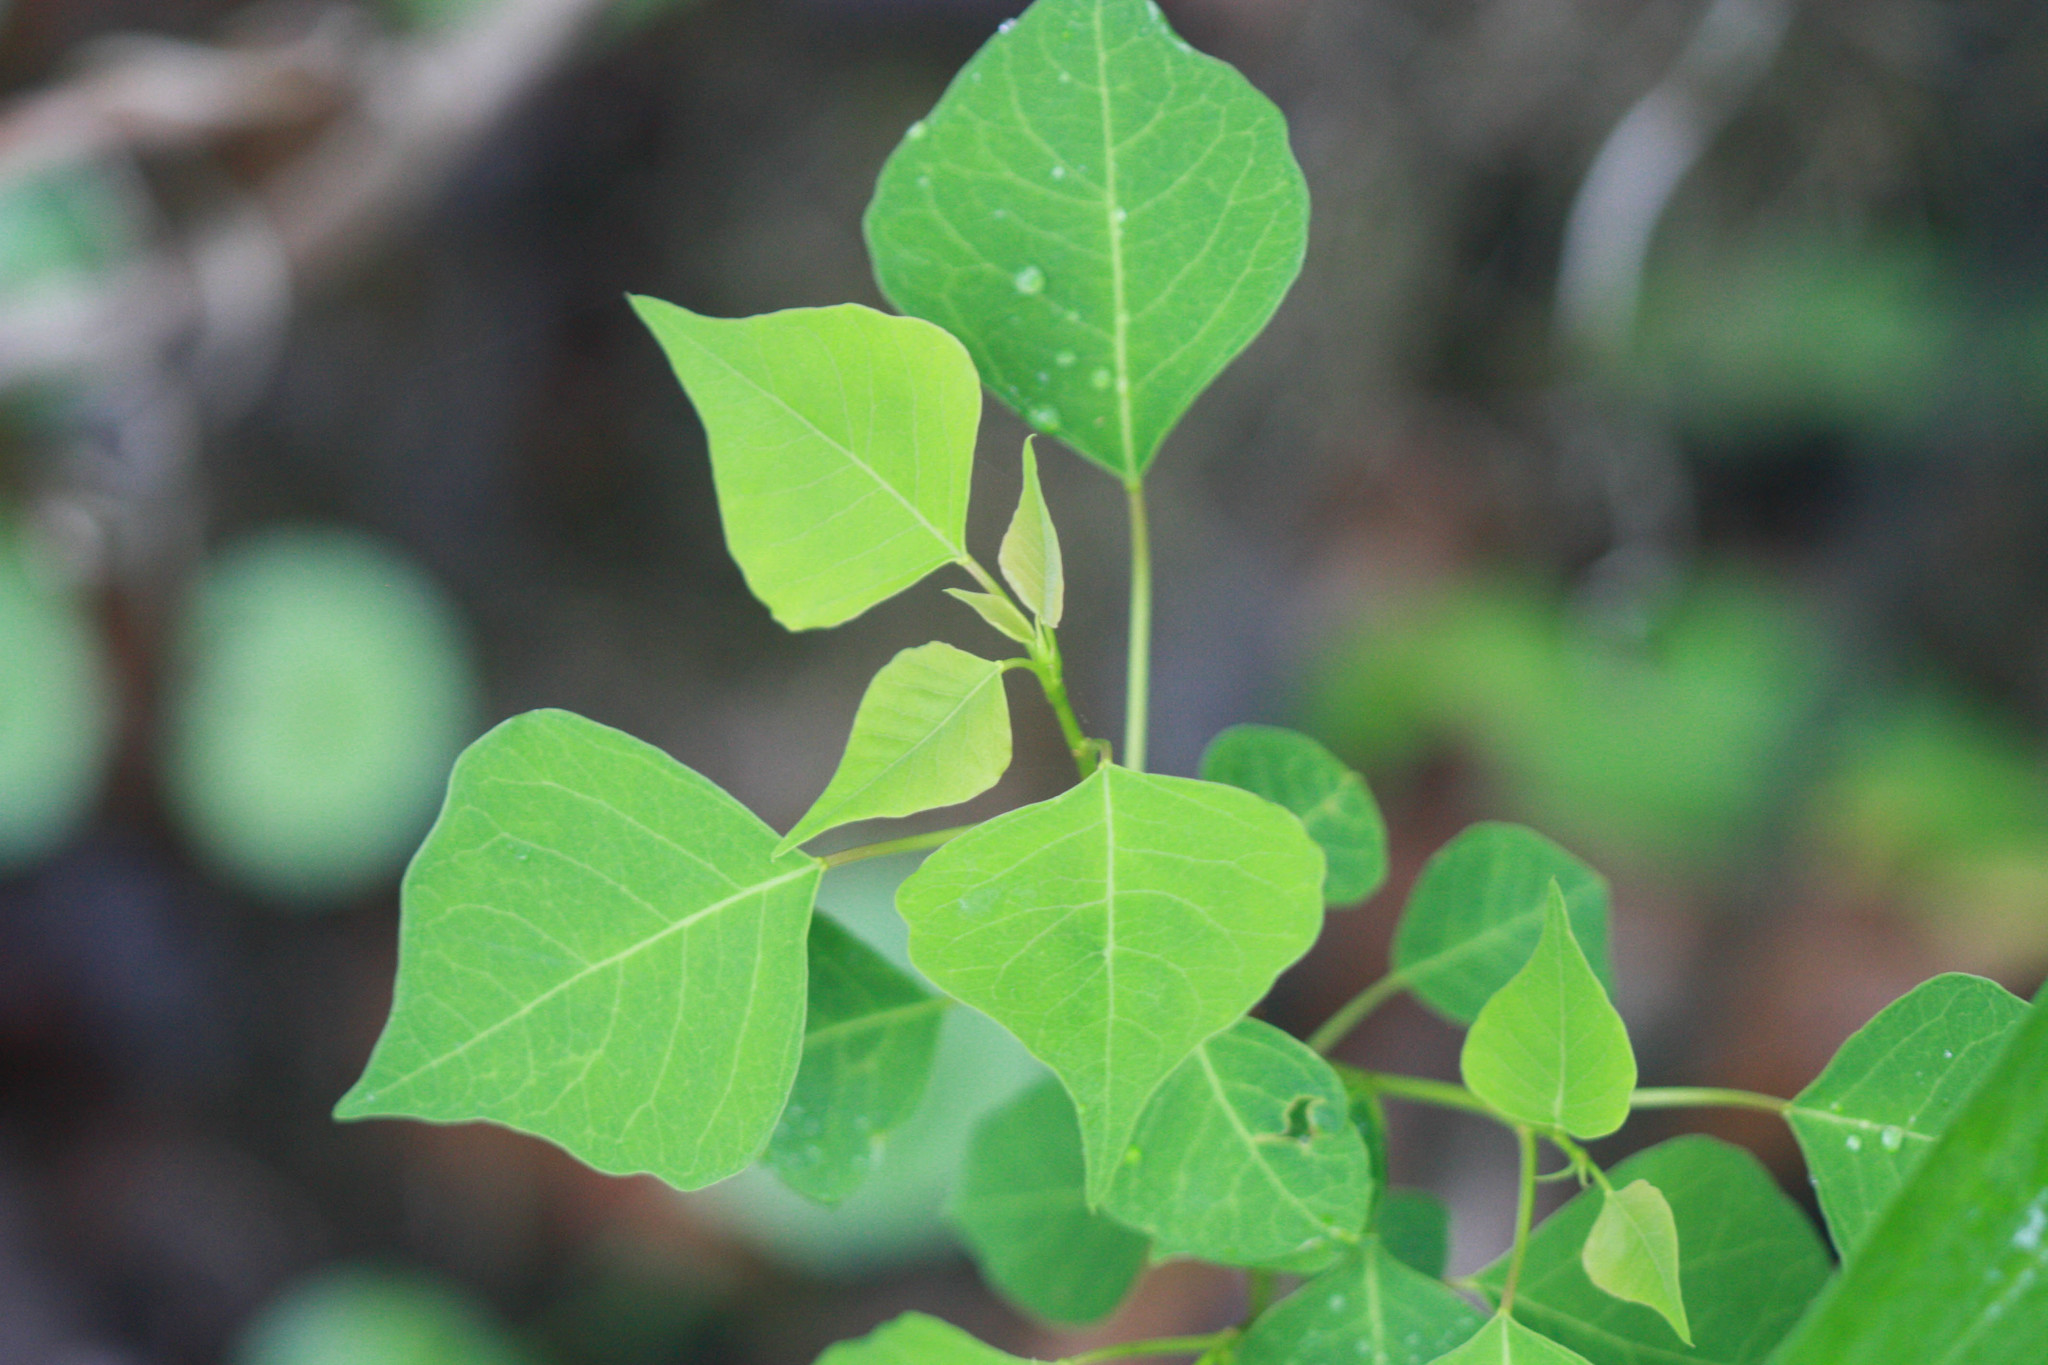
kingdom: Plantae
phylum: Tracheophyta
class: Magnoliopsida
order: Malpighiales
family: Euphorbiaceae
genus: Triadica
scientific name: Triadica sebifera
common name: Chinese tallow
